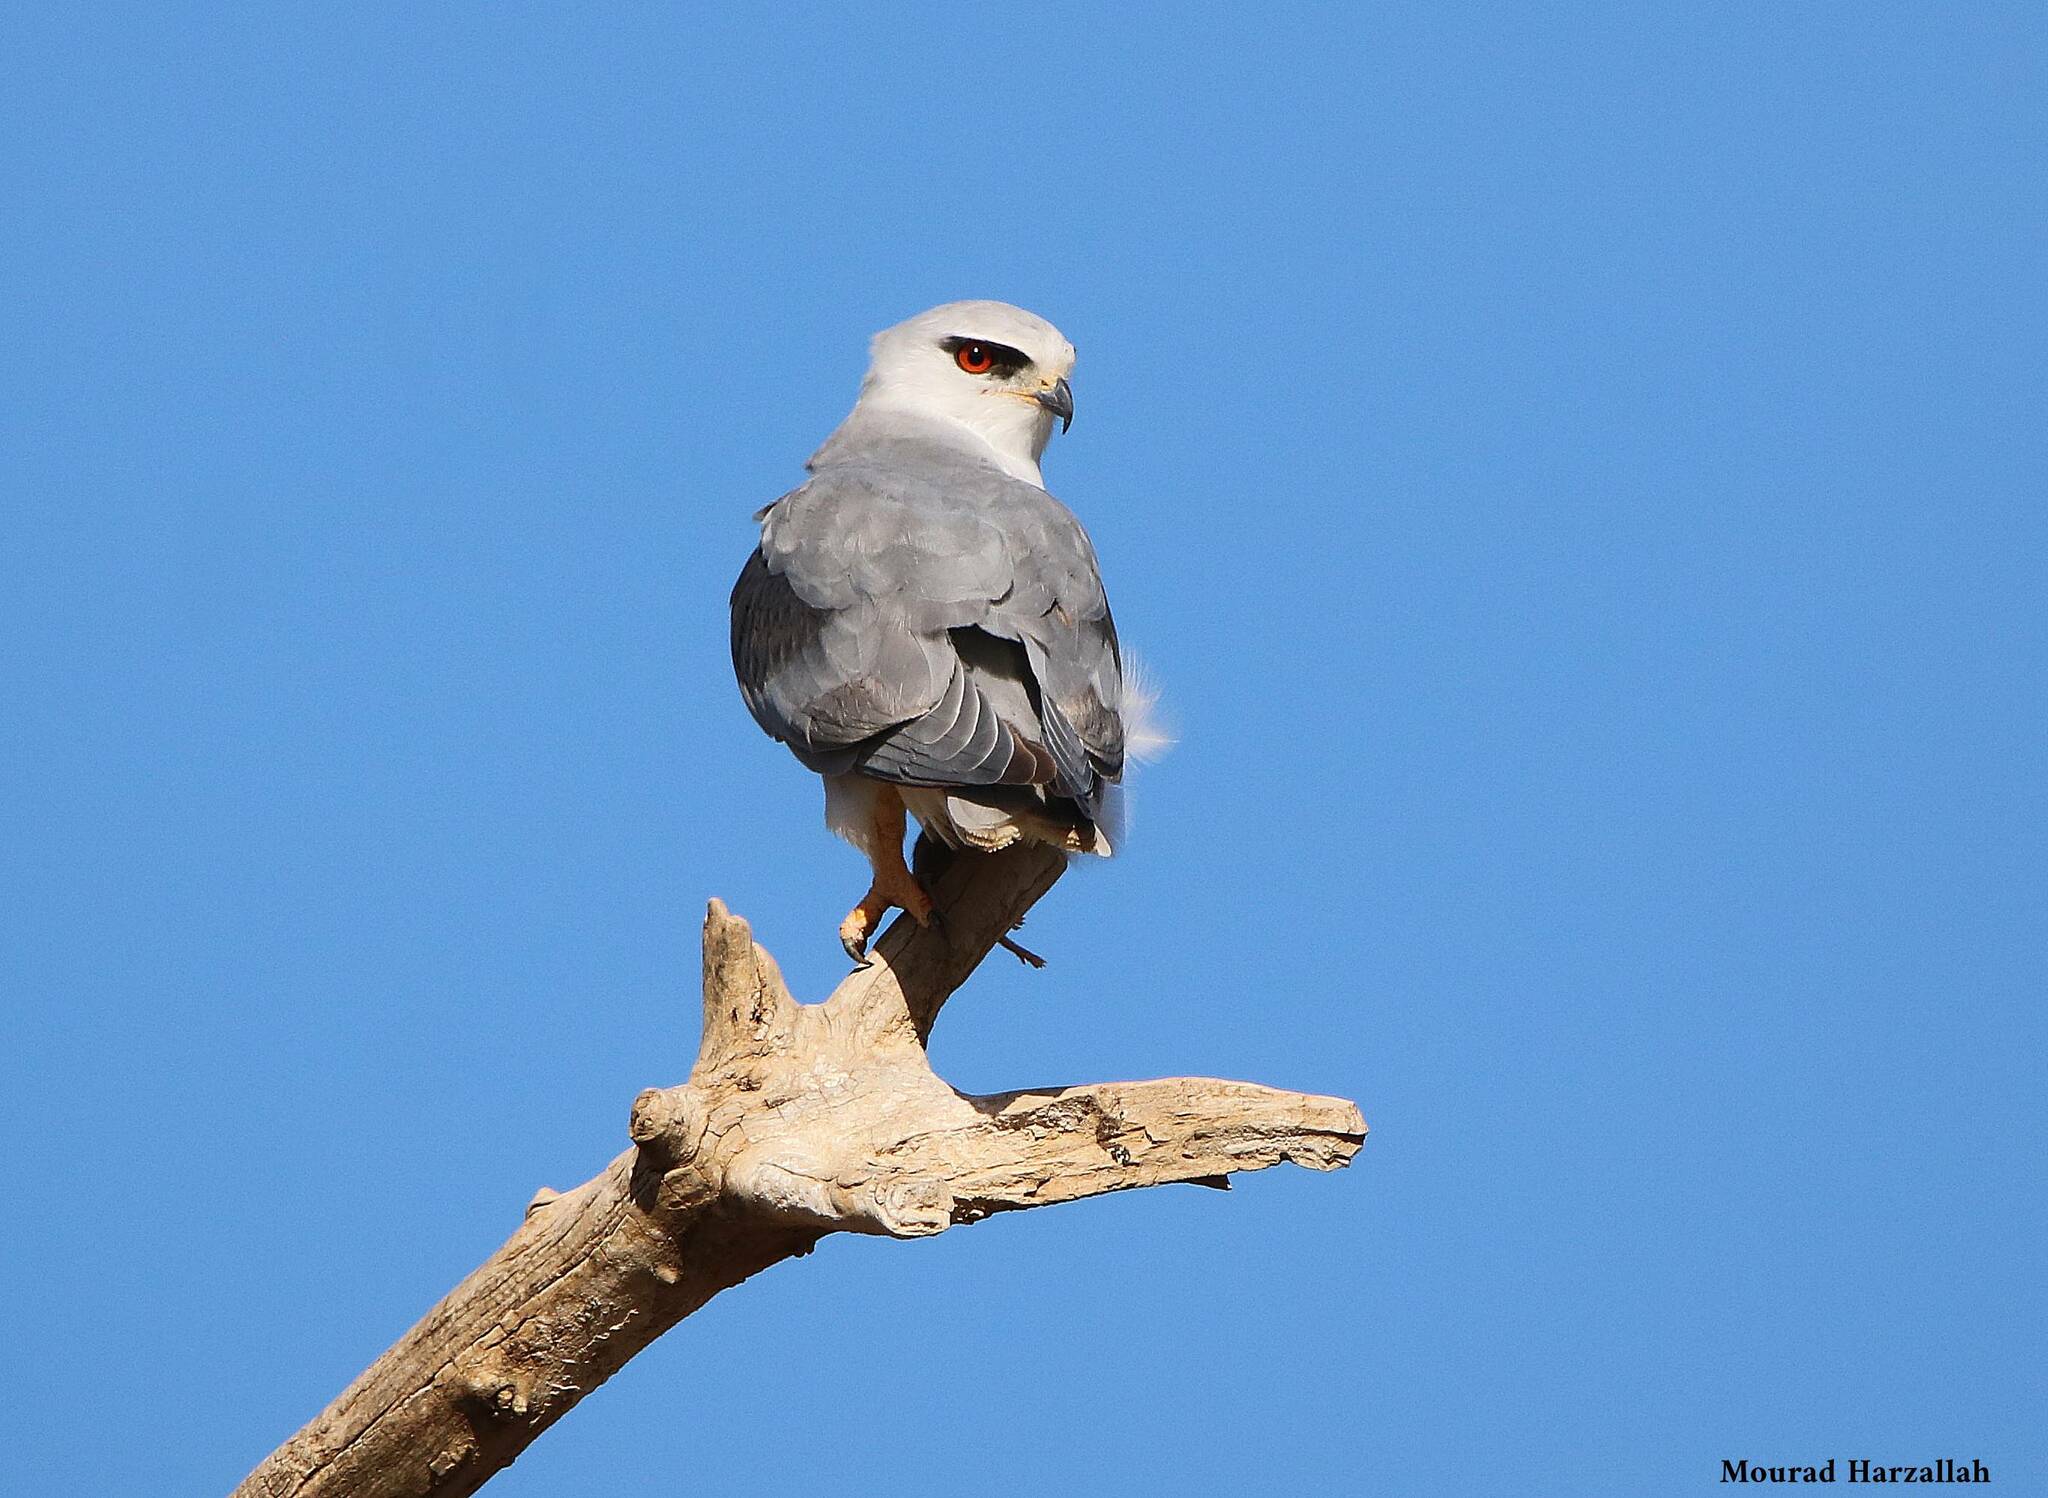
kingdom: Animalia
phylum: Chordata
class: Aves
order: Accipitriformes
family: Accipitridae
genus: Elanus
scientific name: Elanus caeruleus
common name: Black-winged kite
